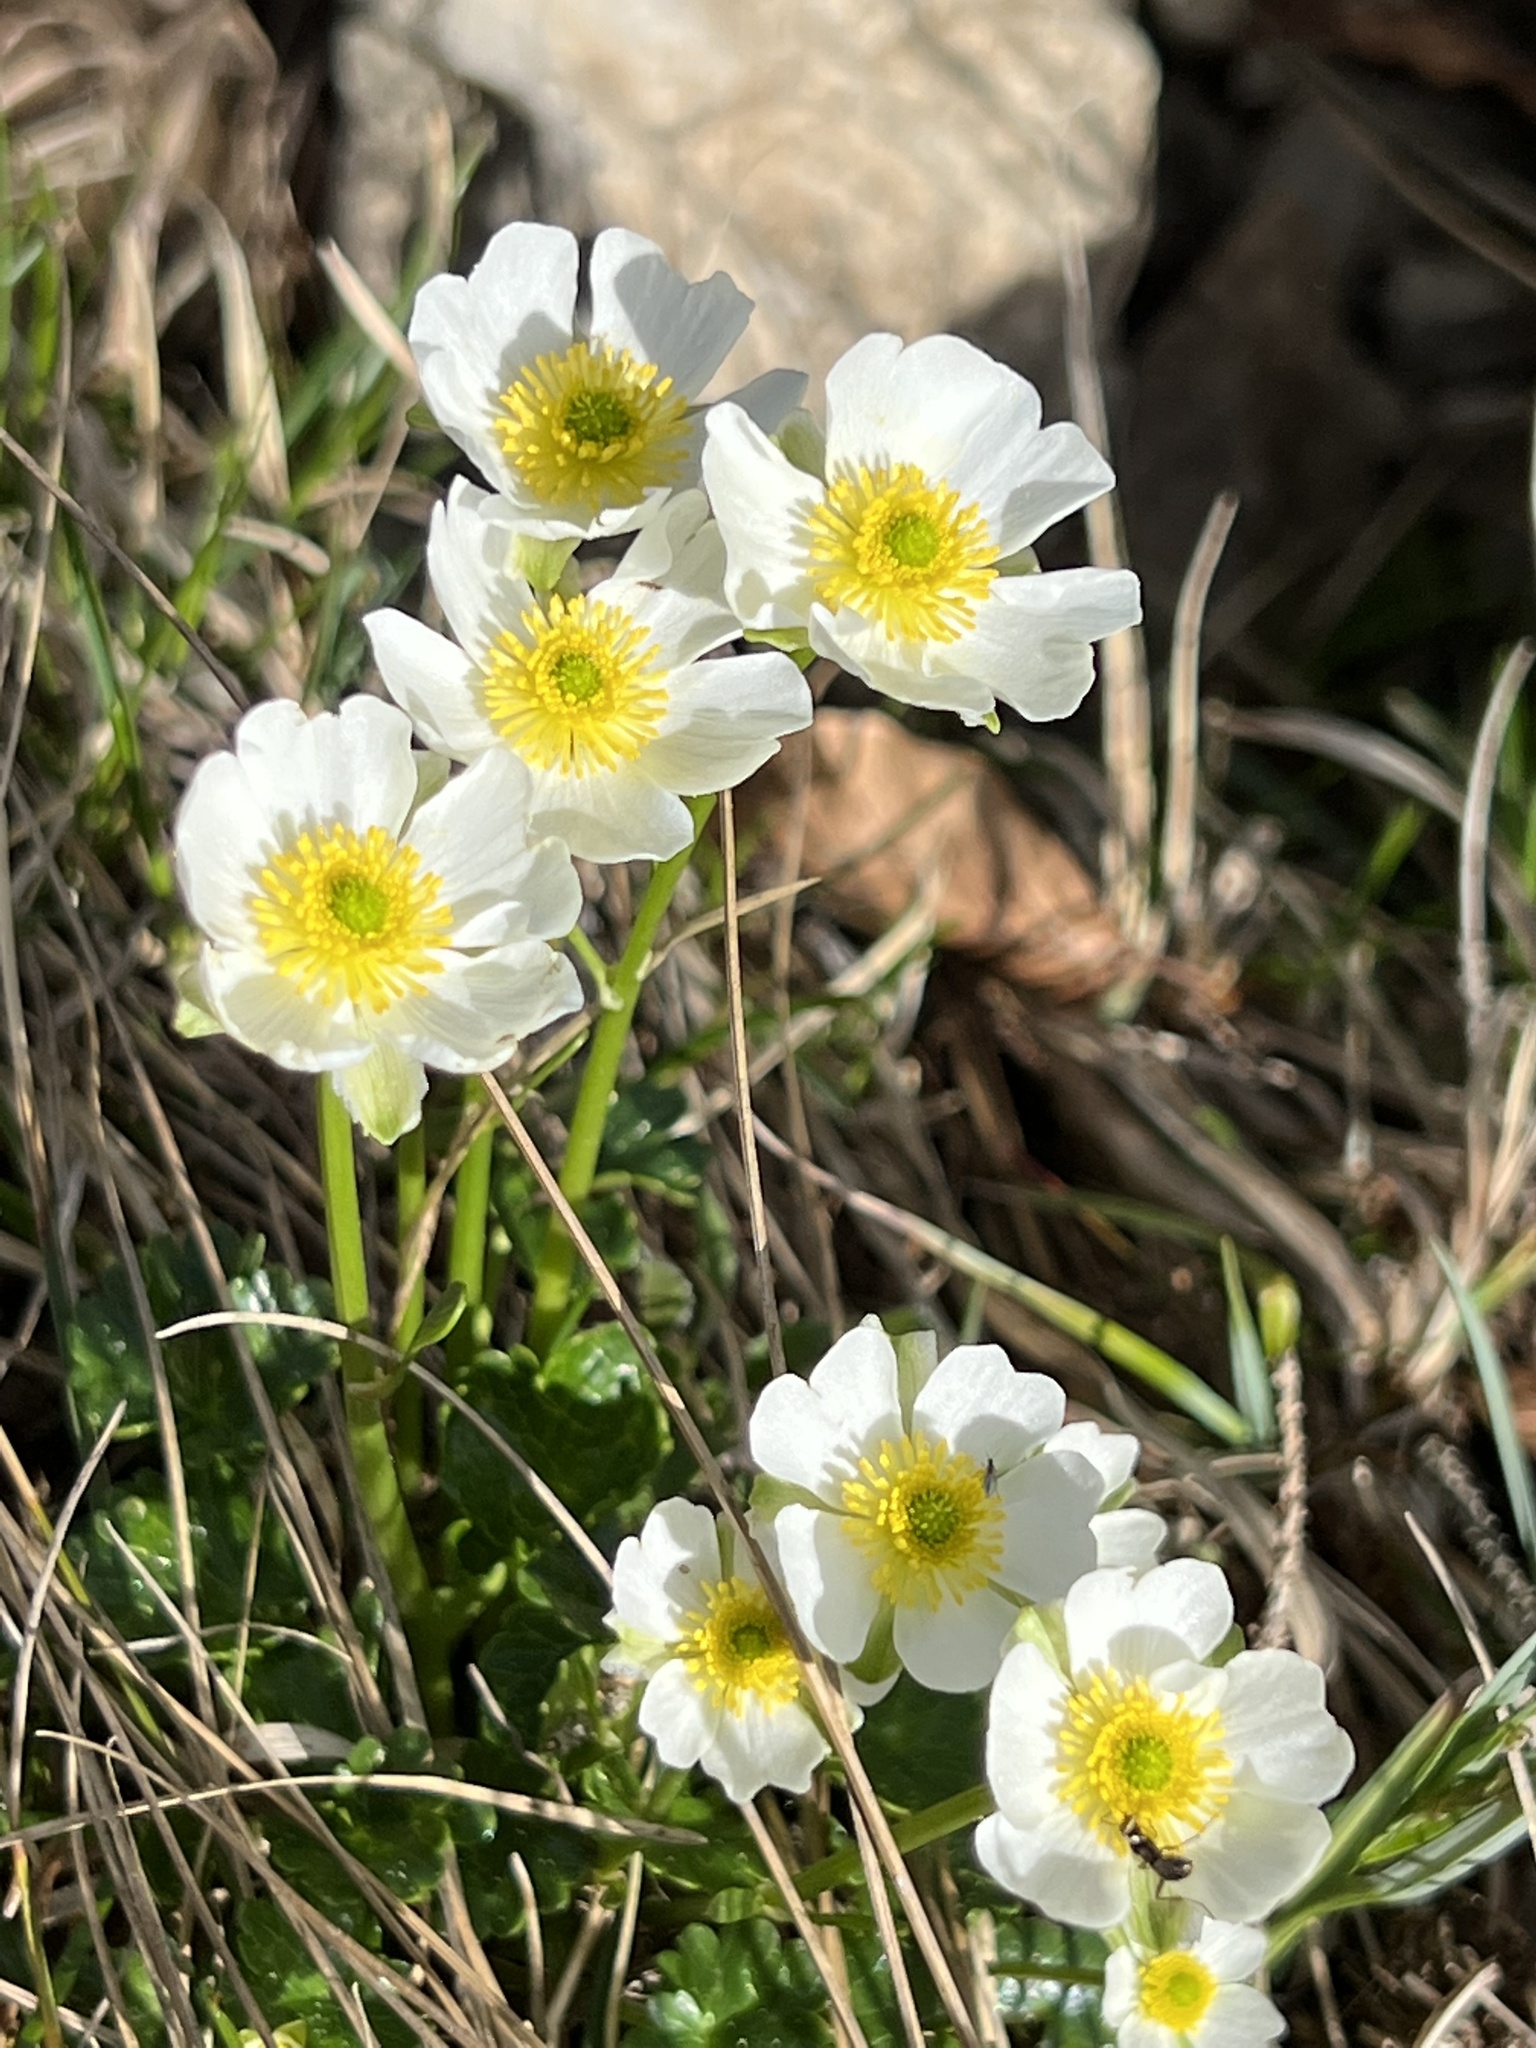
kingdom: Plantae
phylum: Tracheophyta
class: Magnoliopsida
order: Rosales
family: Rosaceae
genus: Dryas
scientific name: Dryas octopetala
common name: Eight-petal mountain-avens
